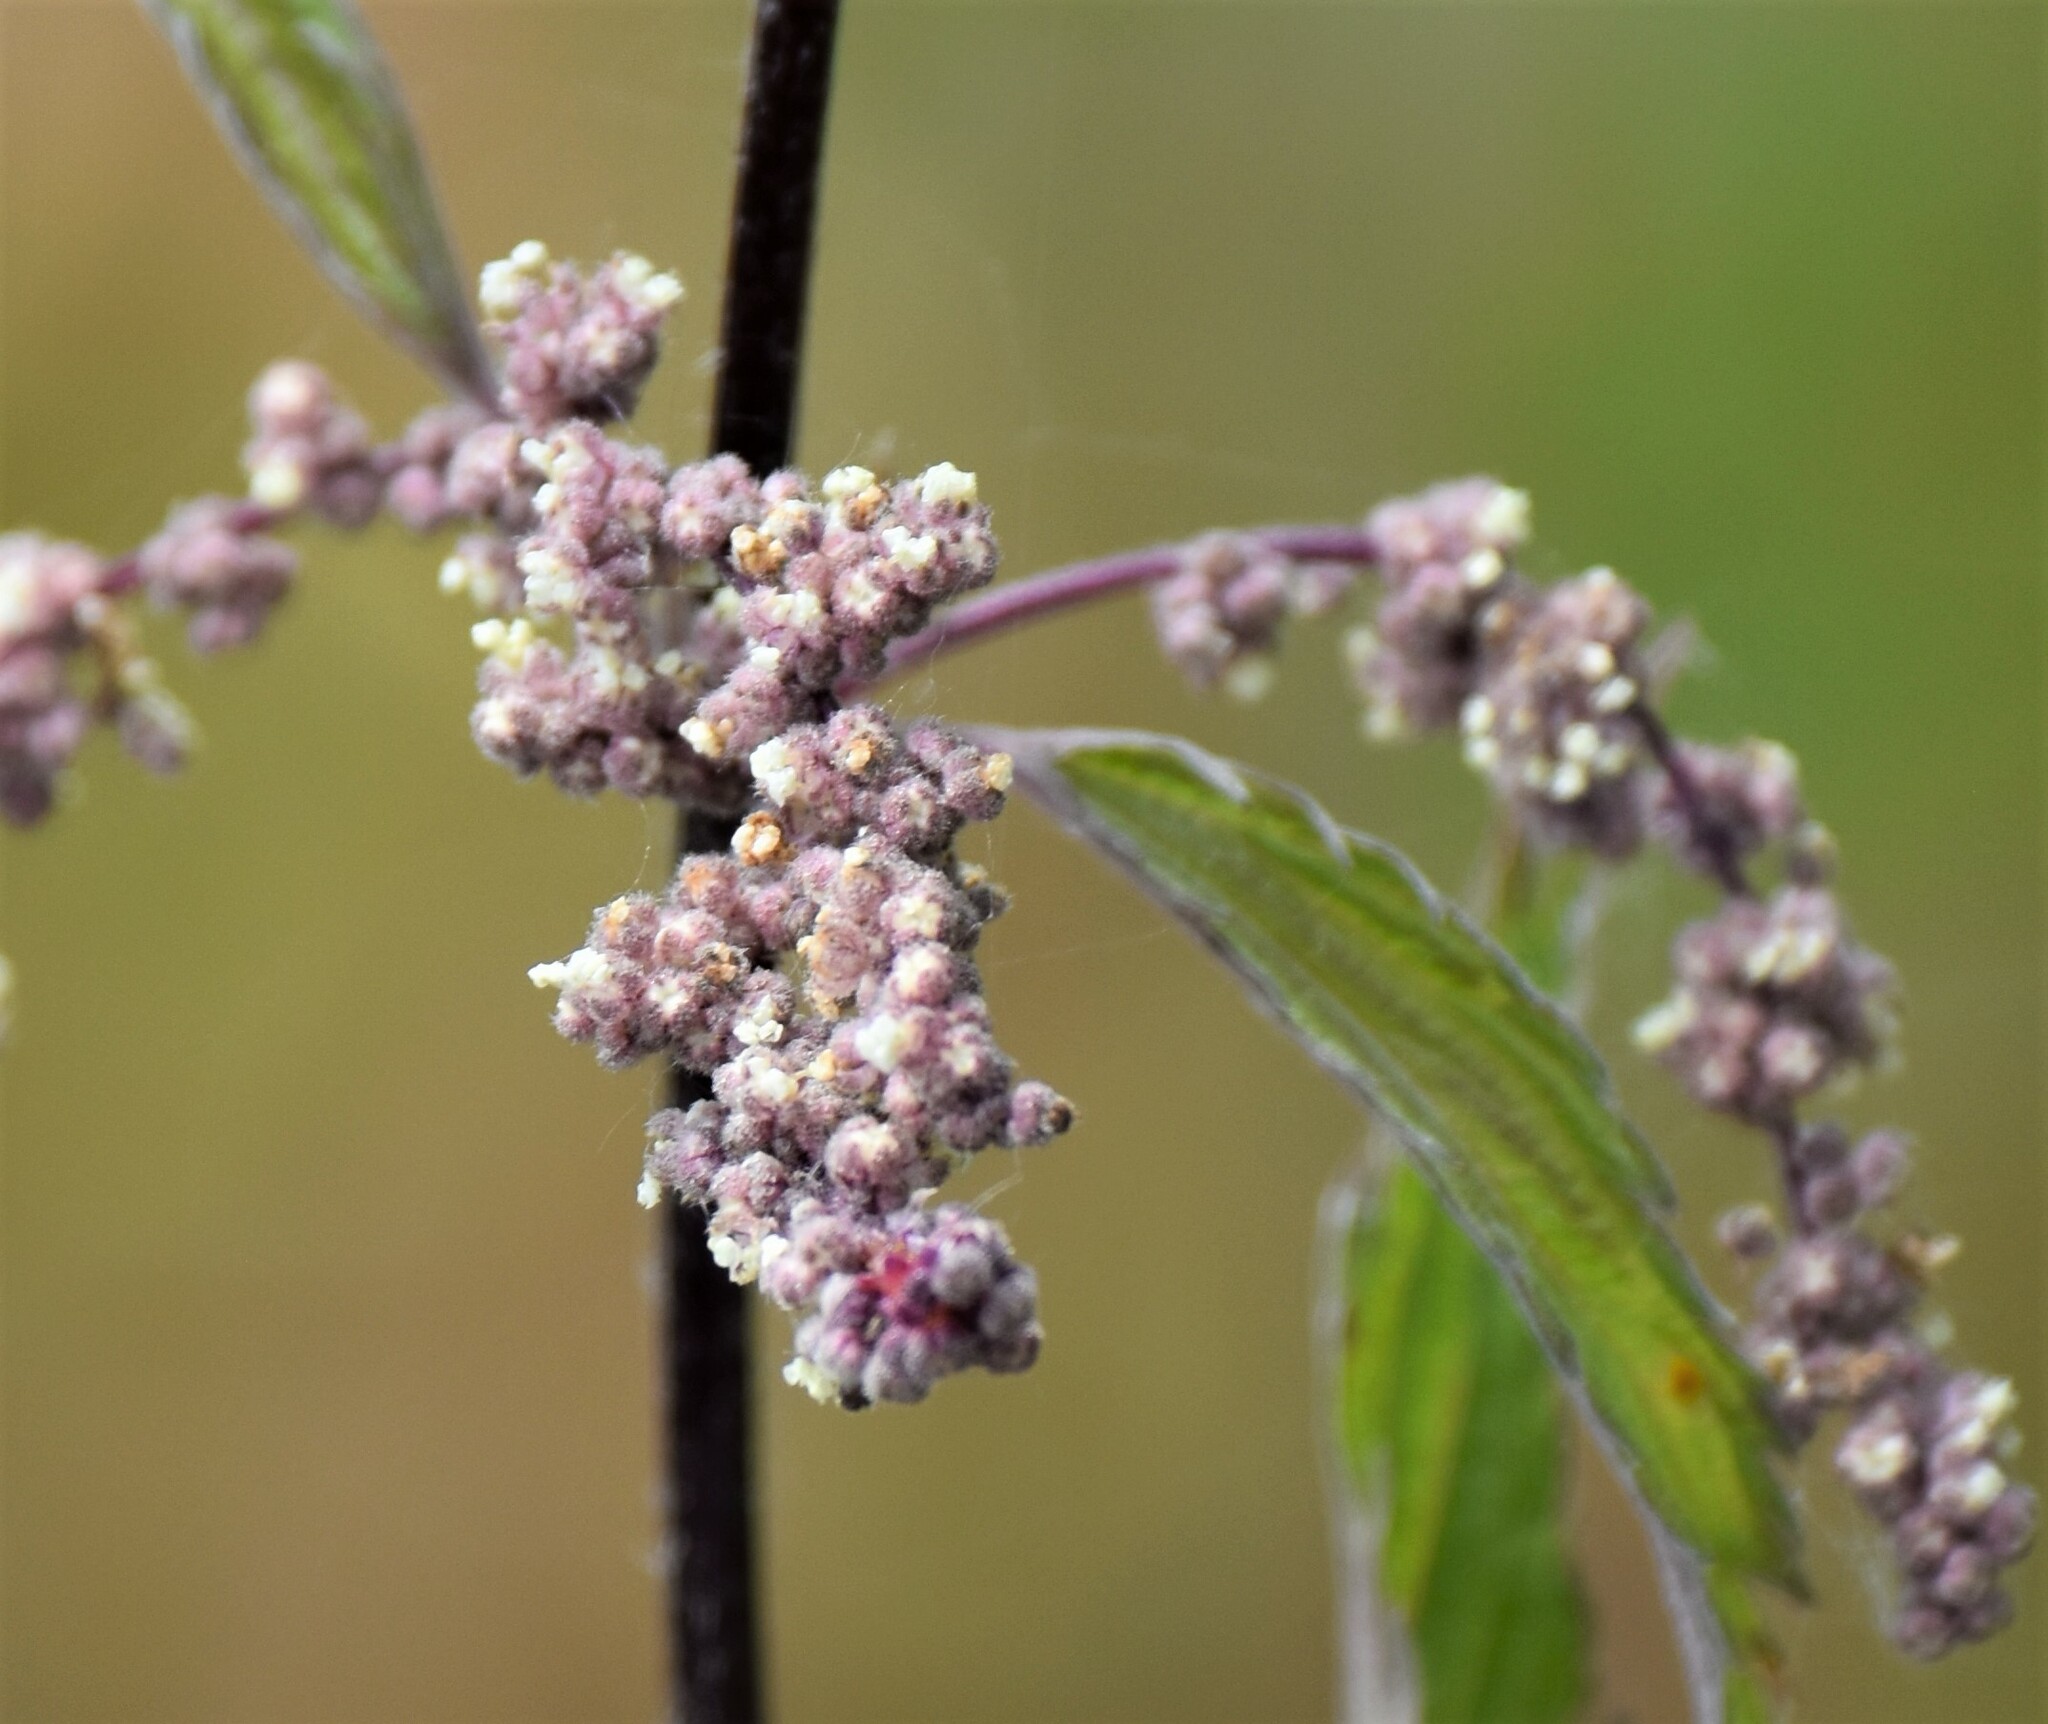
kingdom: Plantae
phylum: Tracheophyta
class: Magnoliopsida
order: Rosales
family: Urticaceae
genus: Urtica
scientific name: Urtica gracilis
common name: Slender stinging nettle
